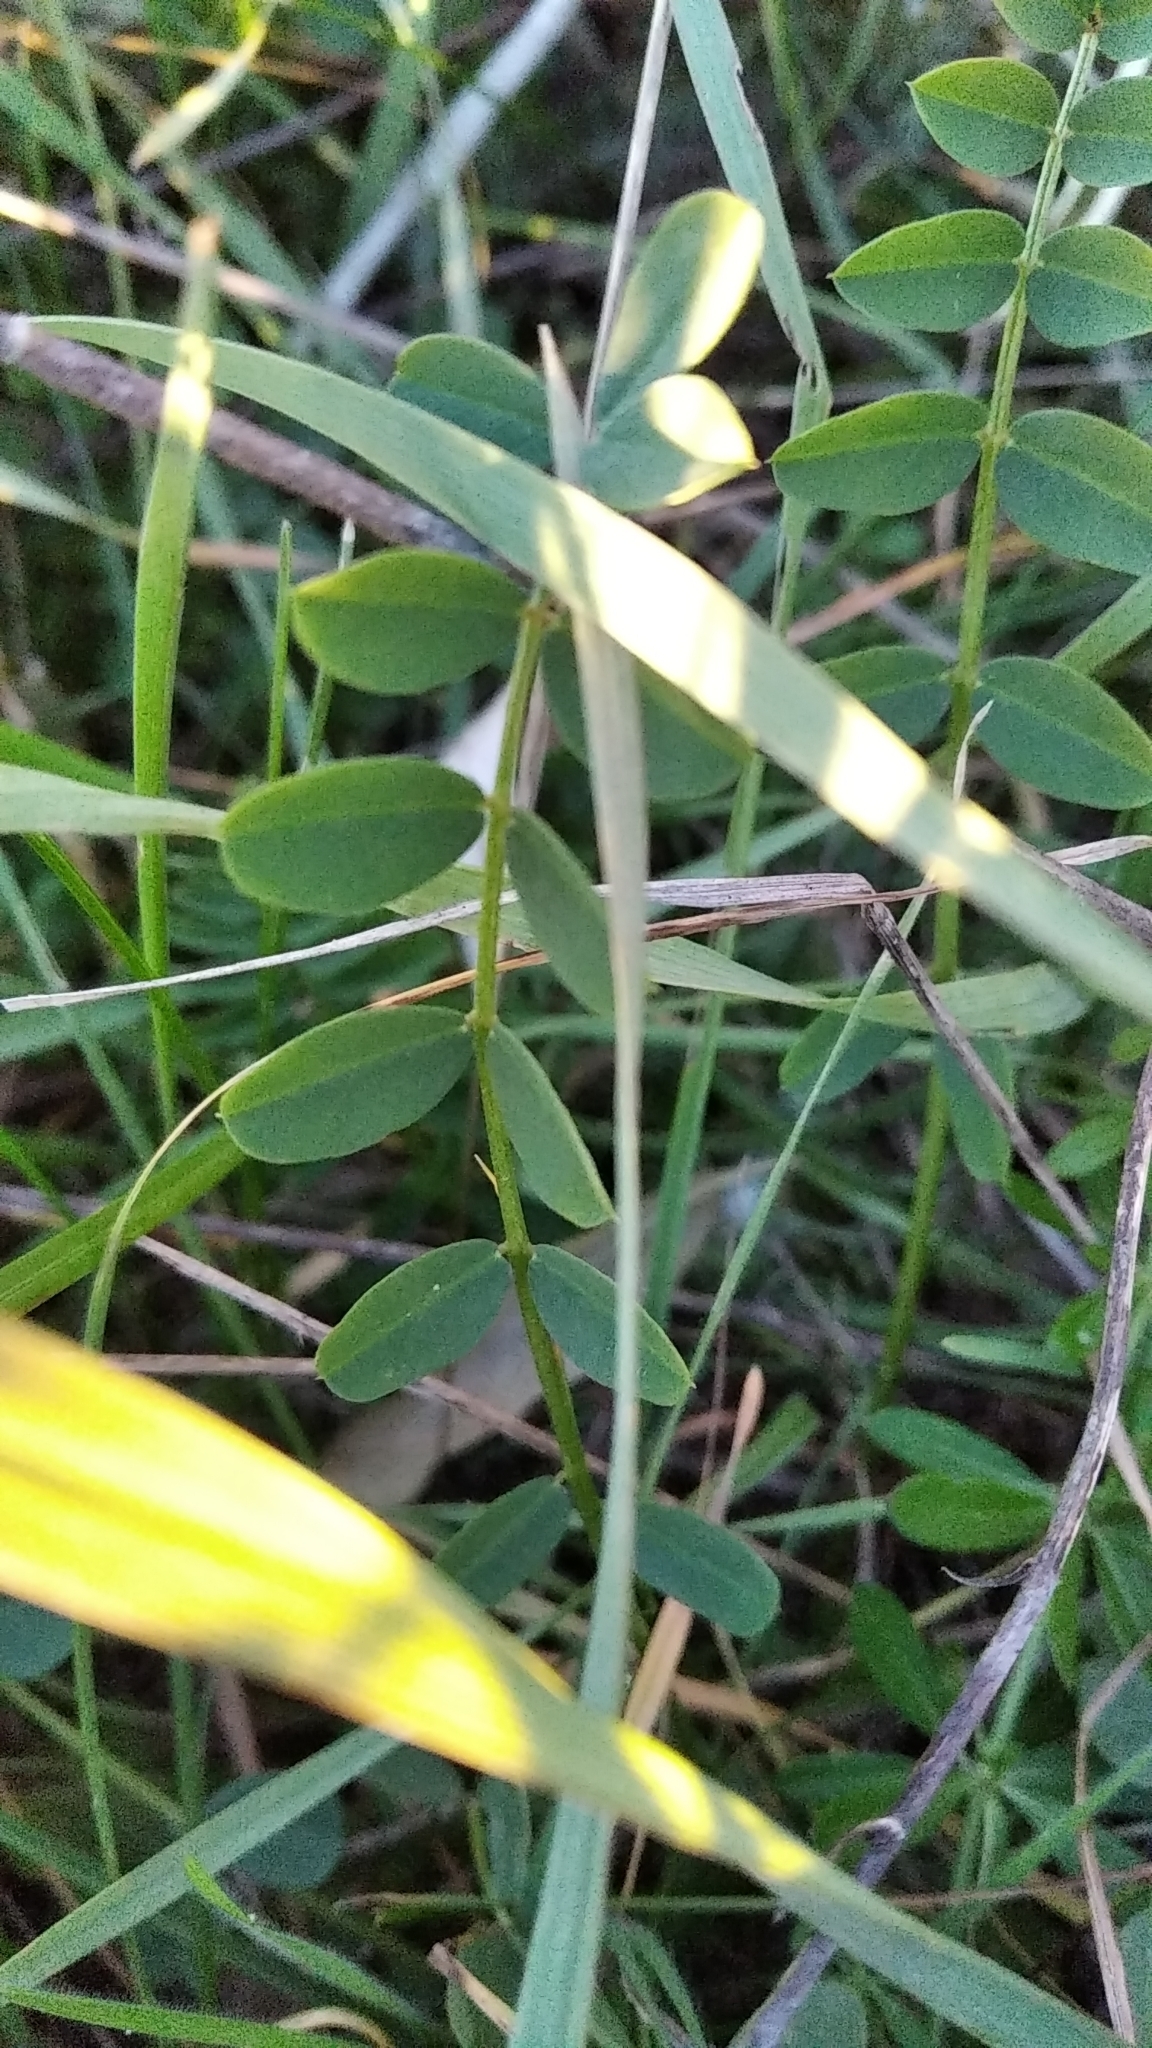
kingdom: Plantae
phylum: Tracheophyta
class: Magnoliopsida
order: Fabales
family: Fabaceae
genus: Coronilla
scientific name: Coronilla varia
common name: Crownvetch
